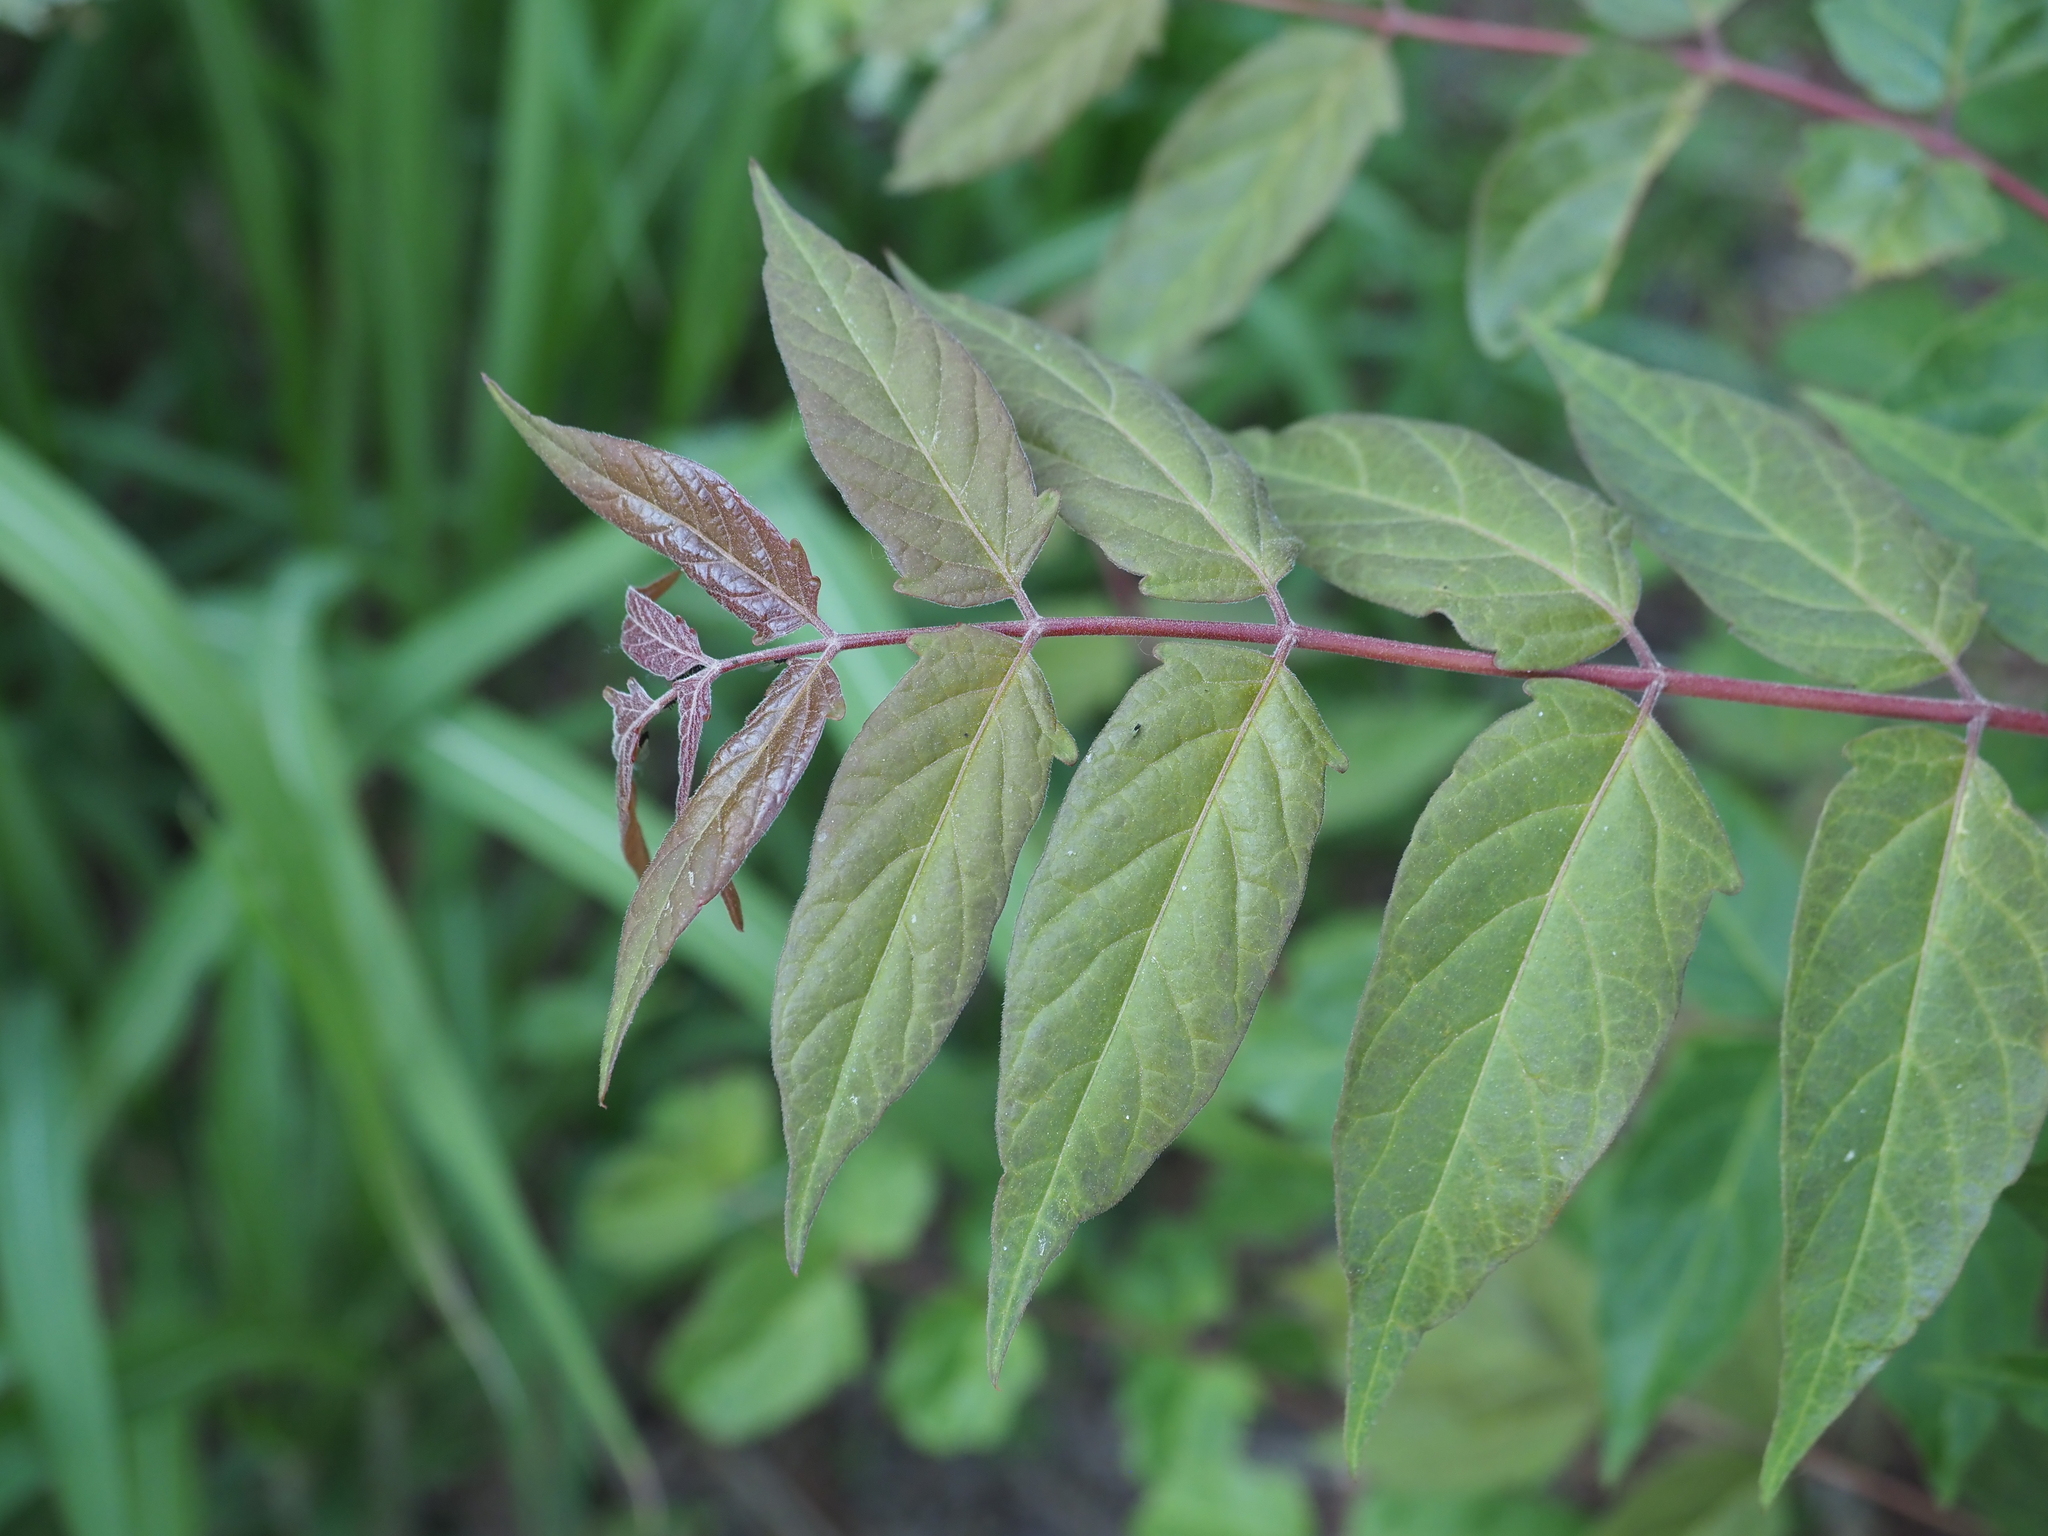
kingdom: Plantae
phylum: Tracheophyta
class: Magnoliopsida
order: Sapindales
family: Simaroubaceae
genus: Ailanthus
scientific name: Ailanthus altissima
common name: Tree-of-heaven
